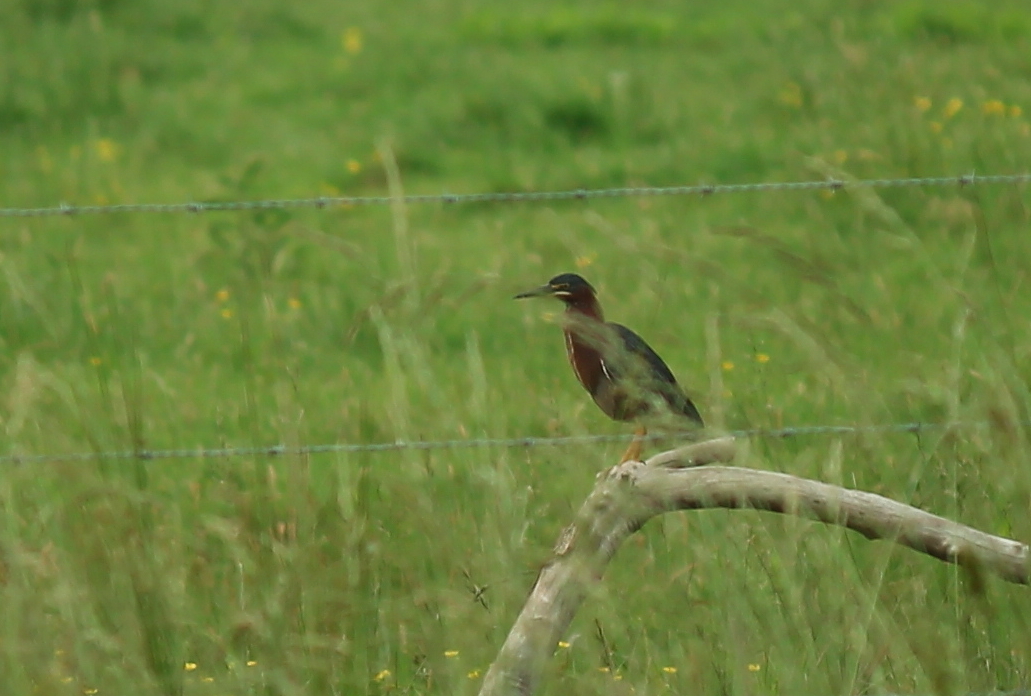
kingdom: Animalia
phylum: Chordata
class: Aves
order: Pelecaniformes
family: Ardeidae
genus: Butorides
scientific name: Butorides virescens
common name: Green heron
